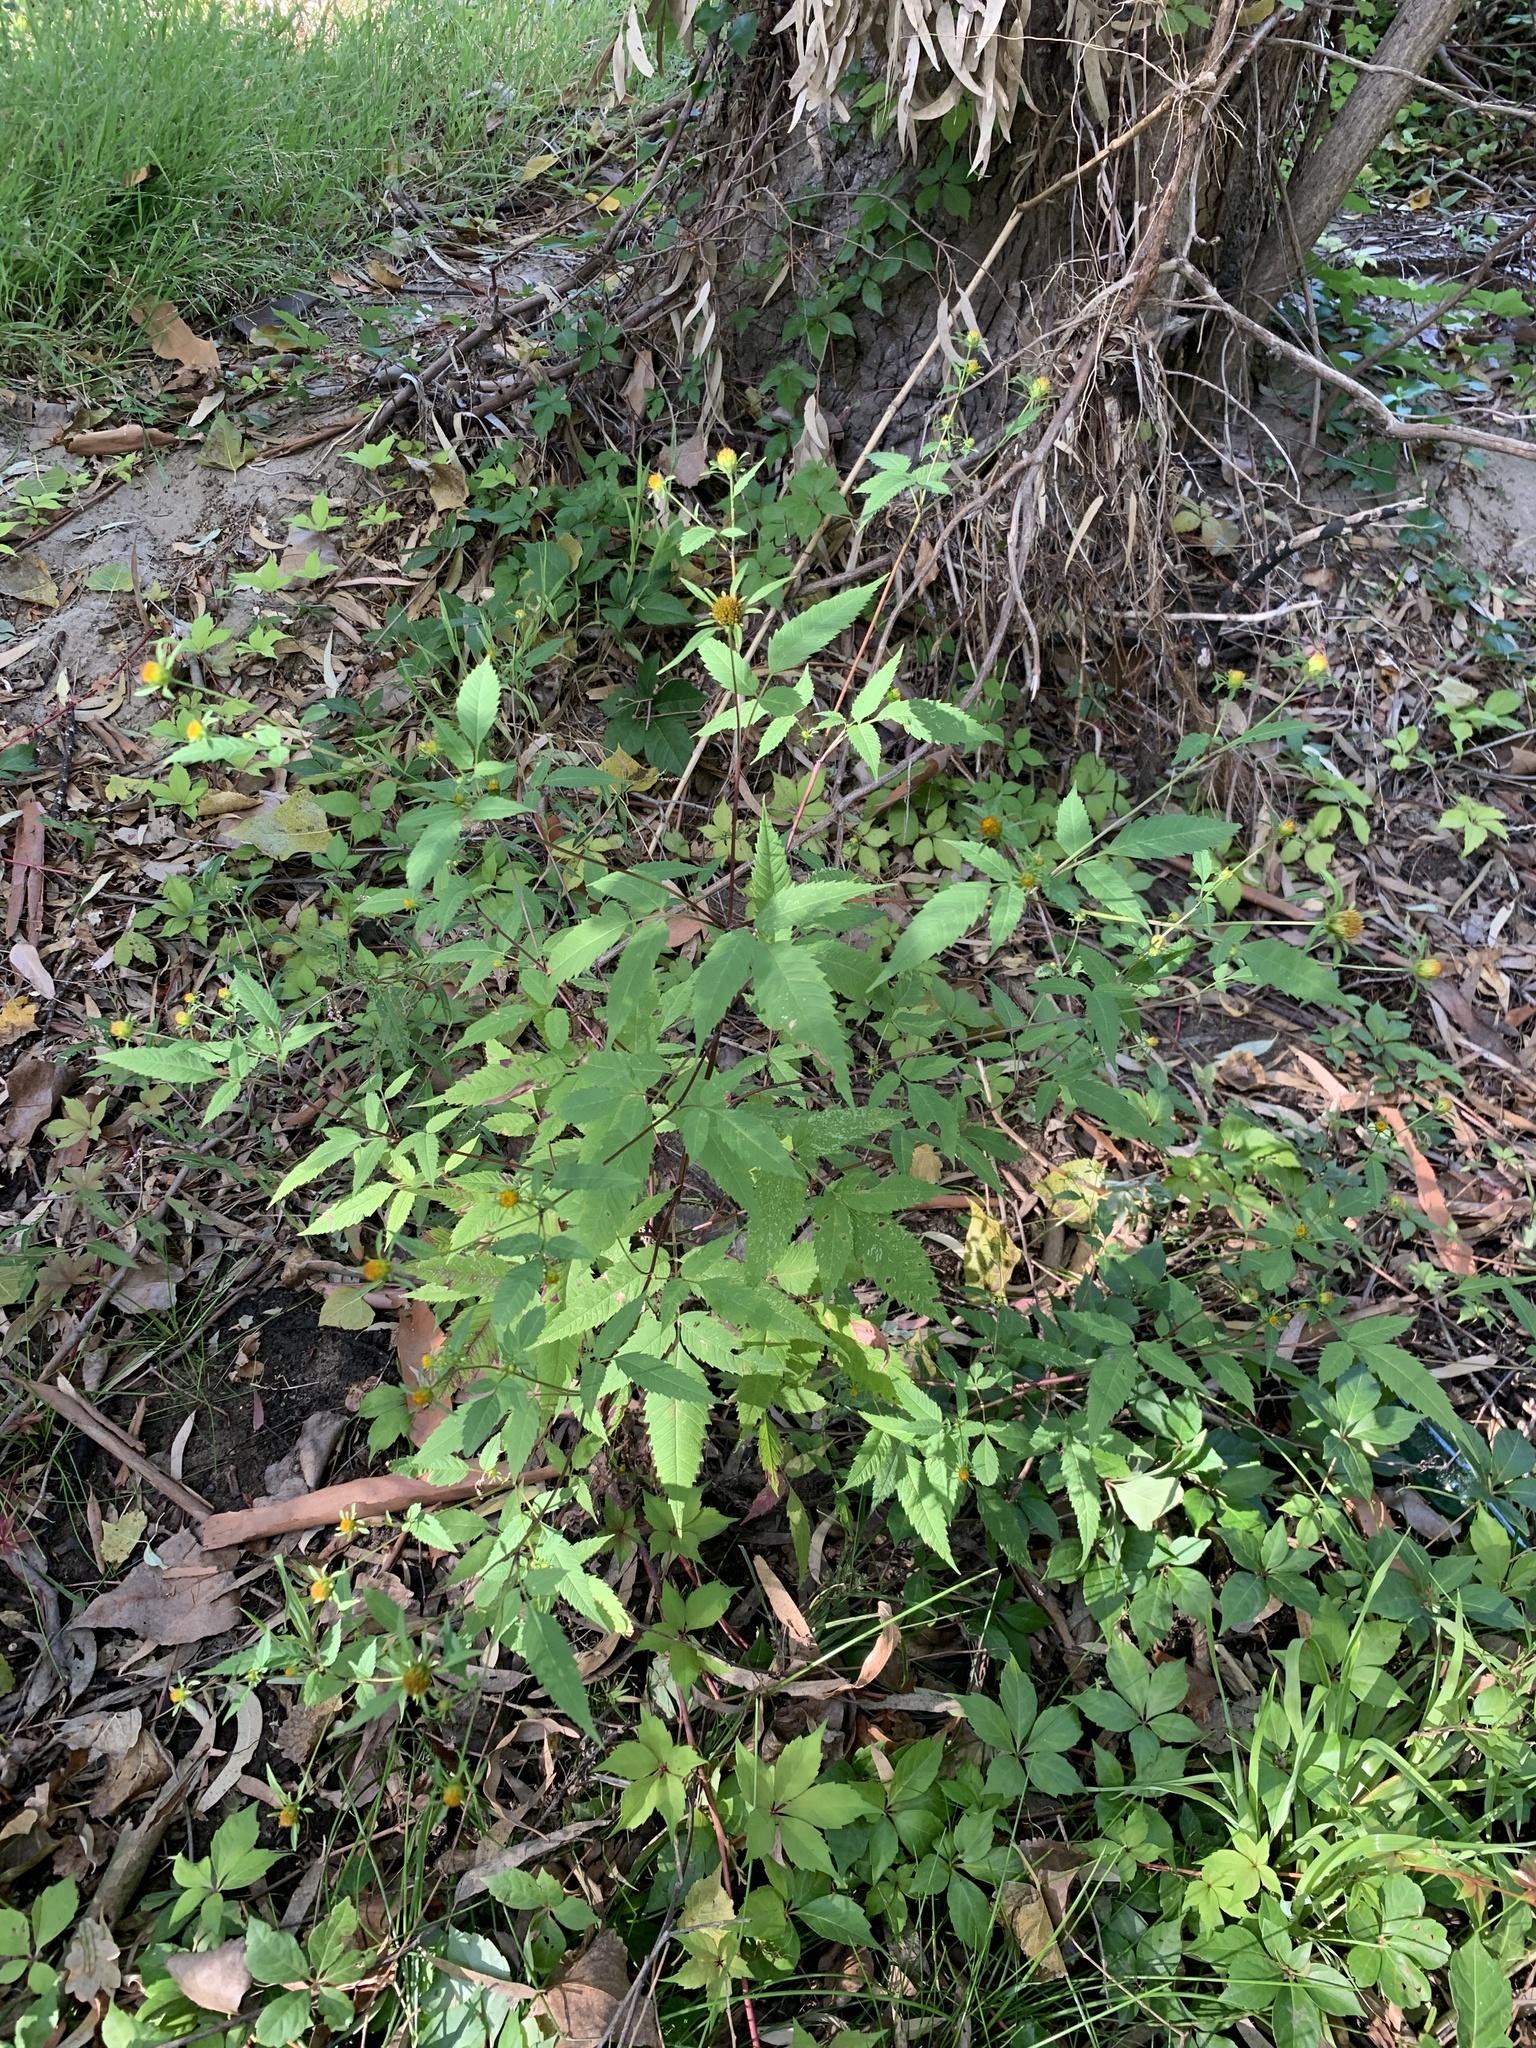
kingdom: Plantae
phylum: Tracheophyta
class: Magnoliopsida
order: Asterales
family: Asteraceae
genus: Bidens
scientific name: Bidens frondosa
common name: Beggarticks
